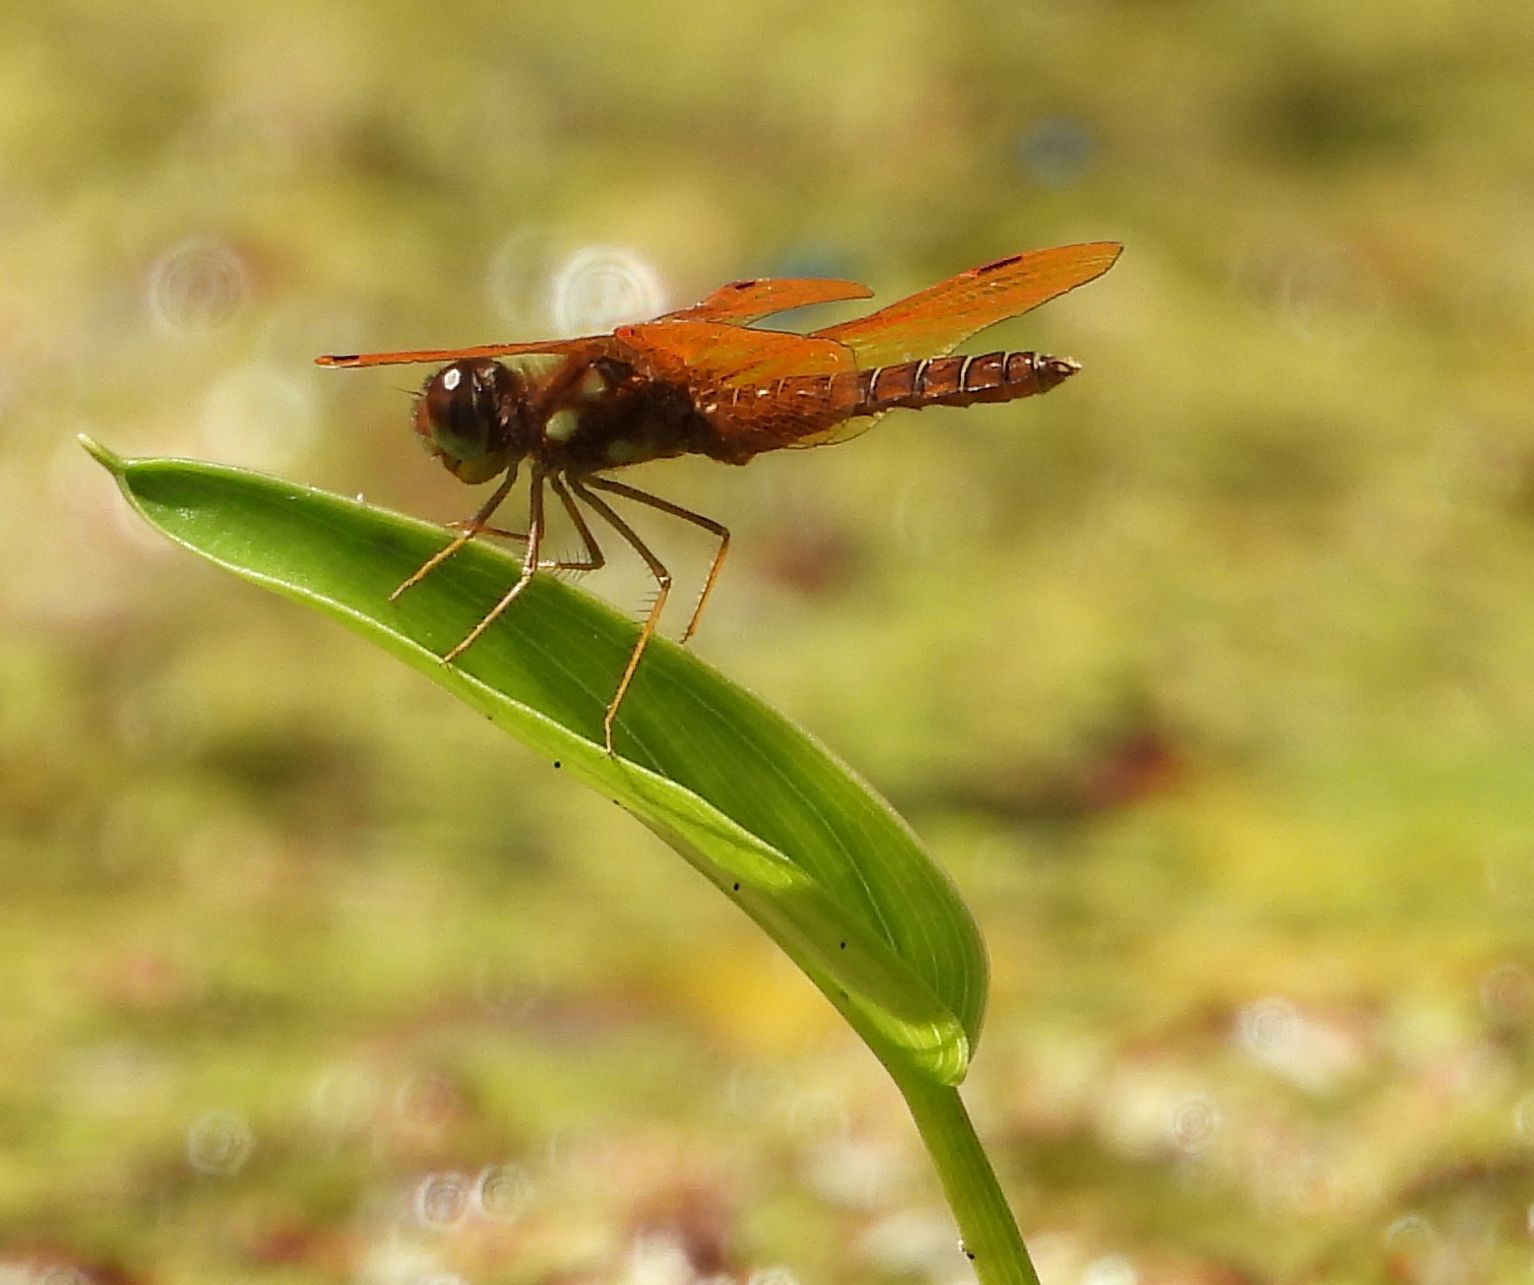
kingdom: Animalia
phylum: Arthropoda
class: Insecta
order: Odonata
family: Libellulidae
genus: Perithemis
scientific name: Perithemis tenera
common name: Eastern amberwing
